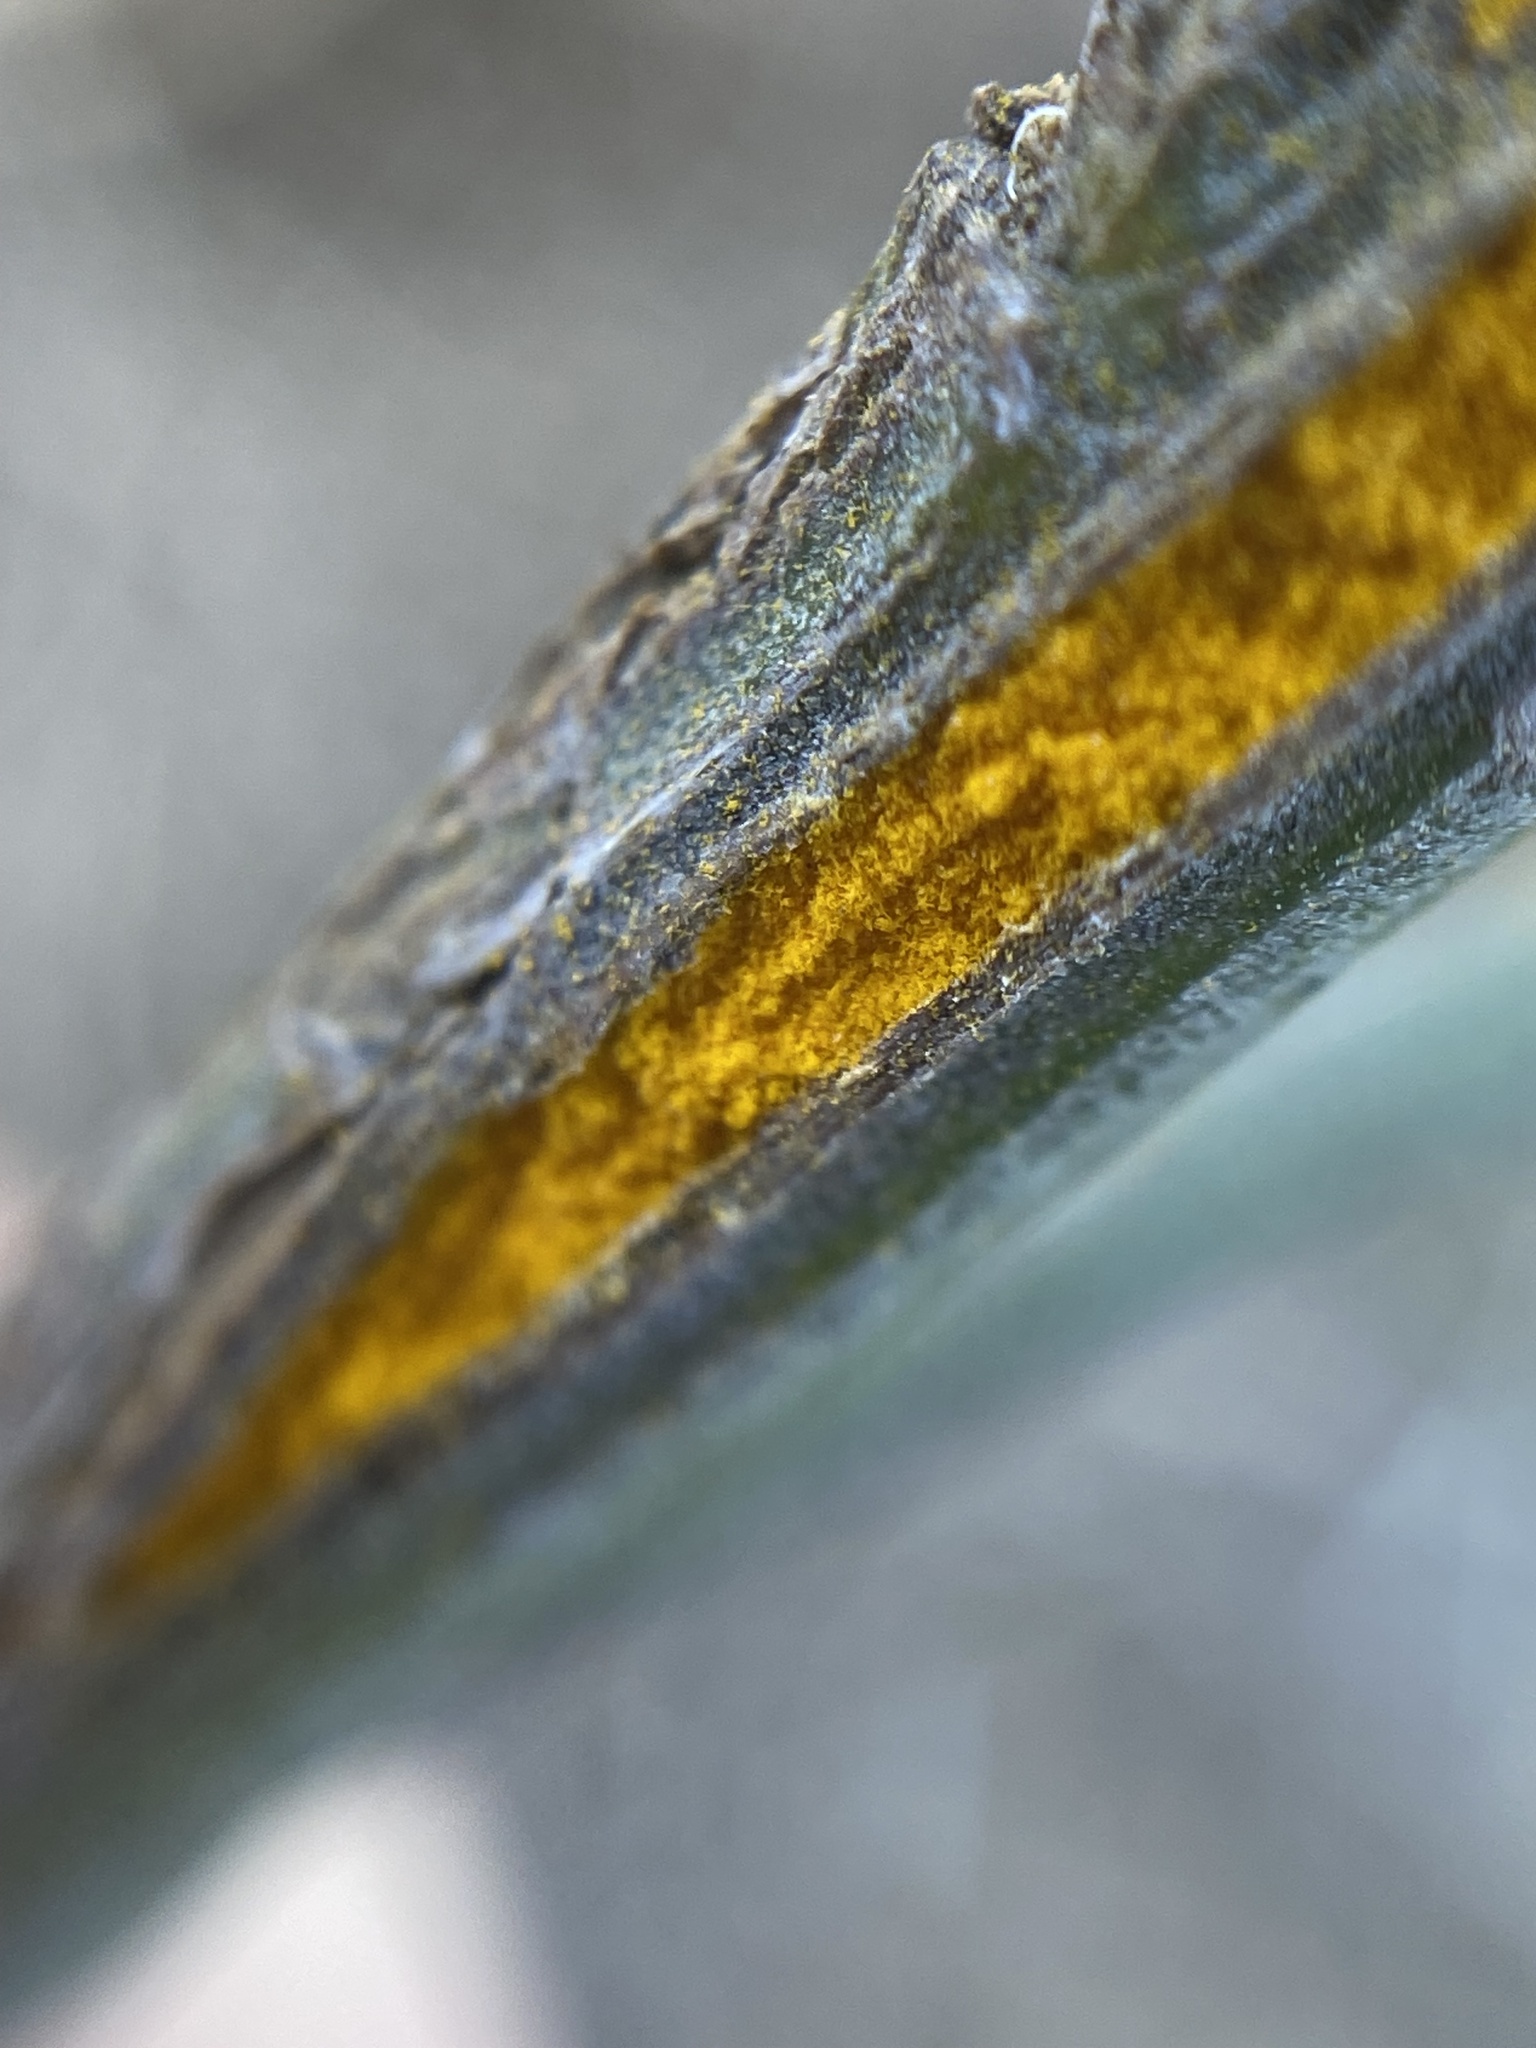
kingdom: Fungi
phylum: Basidiomycota
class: Pucciniomycetes
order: Pucciniales
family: Pucciniaceae
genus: Eriosporangium
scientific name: Eriosporangium evadens
